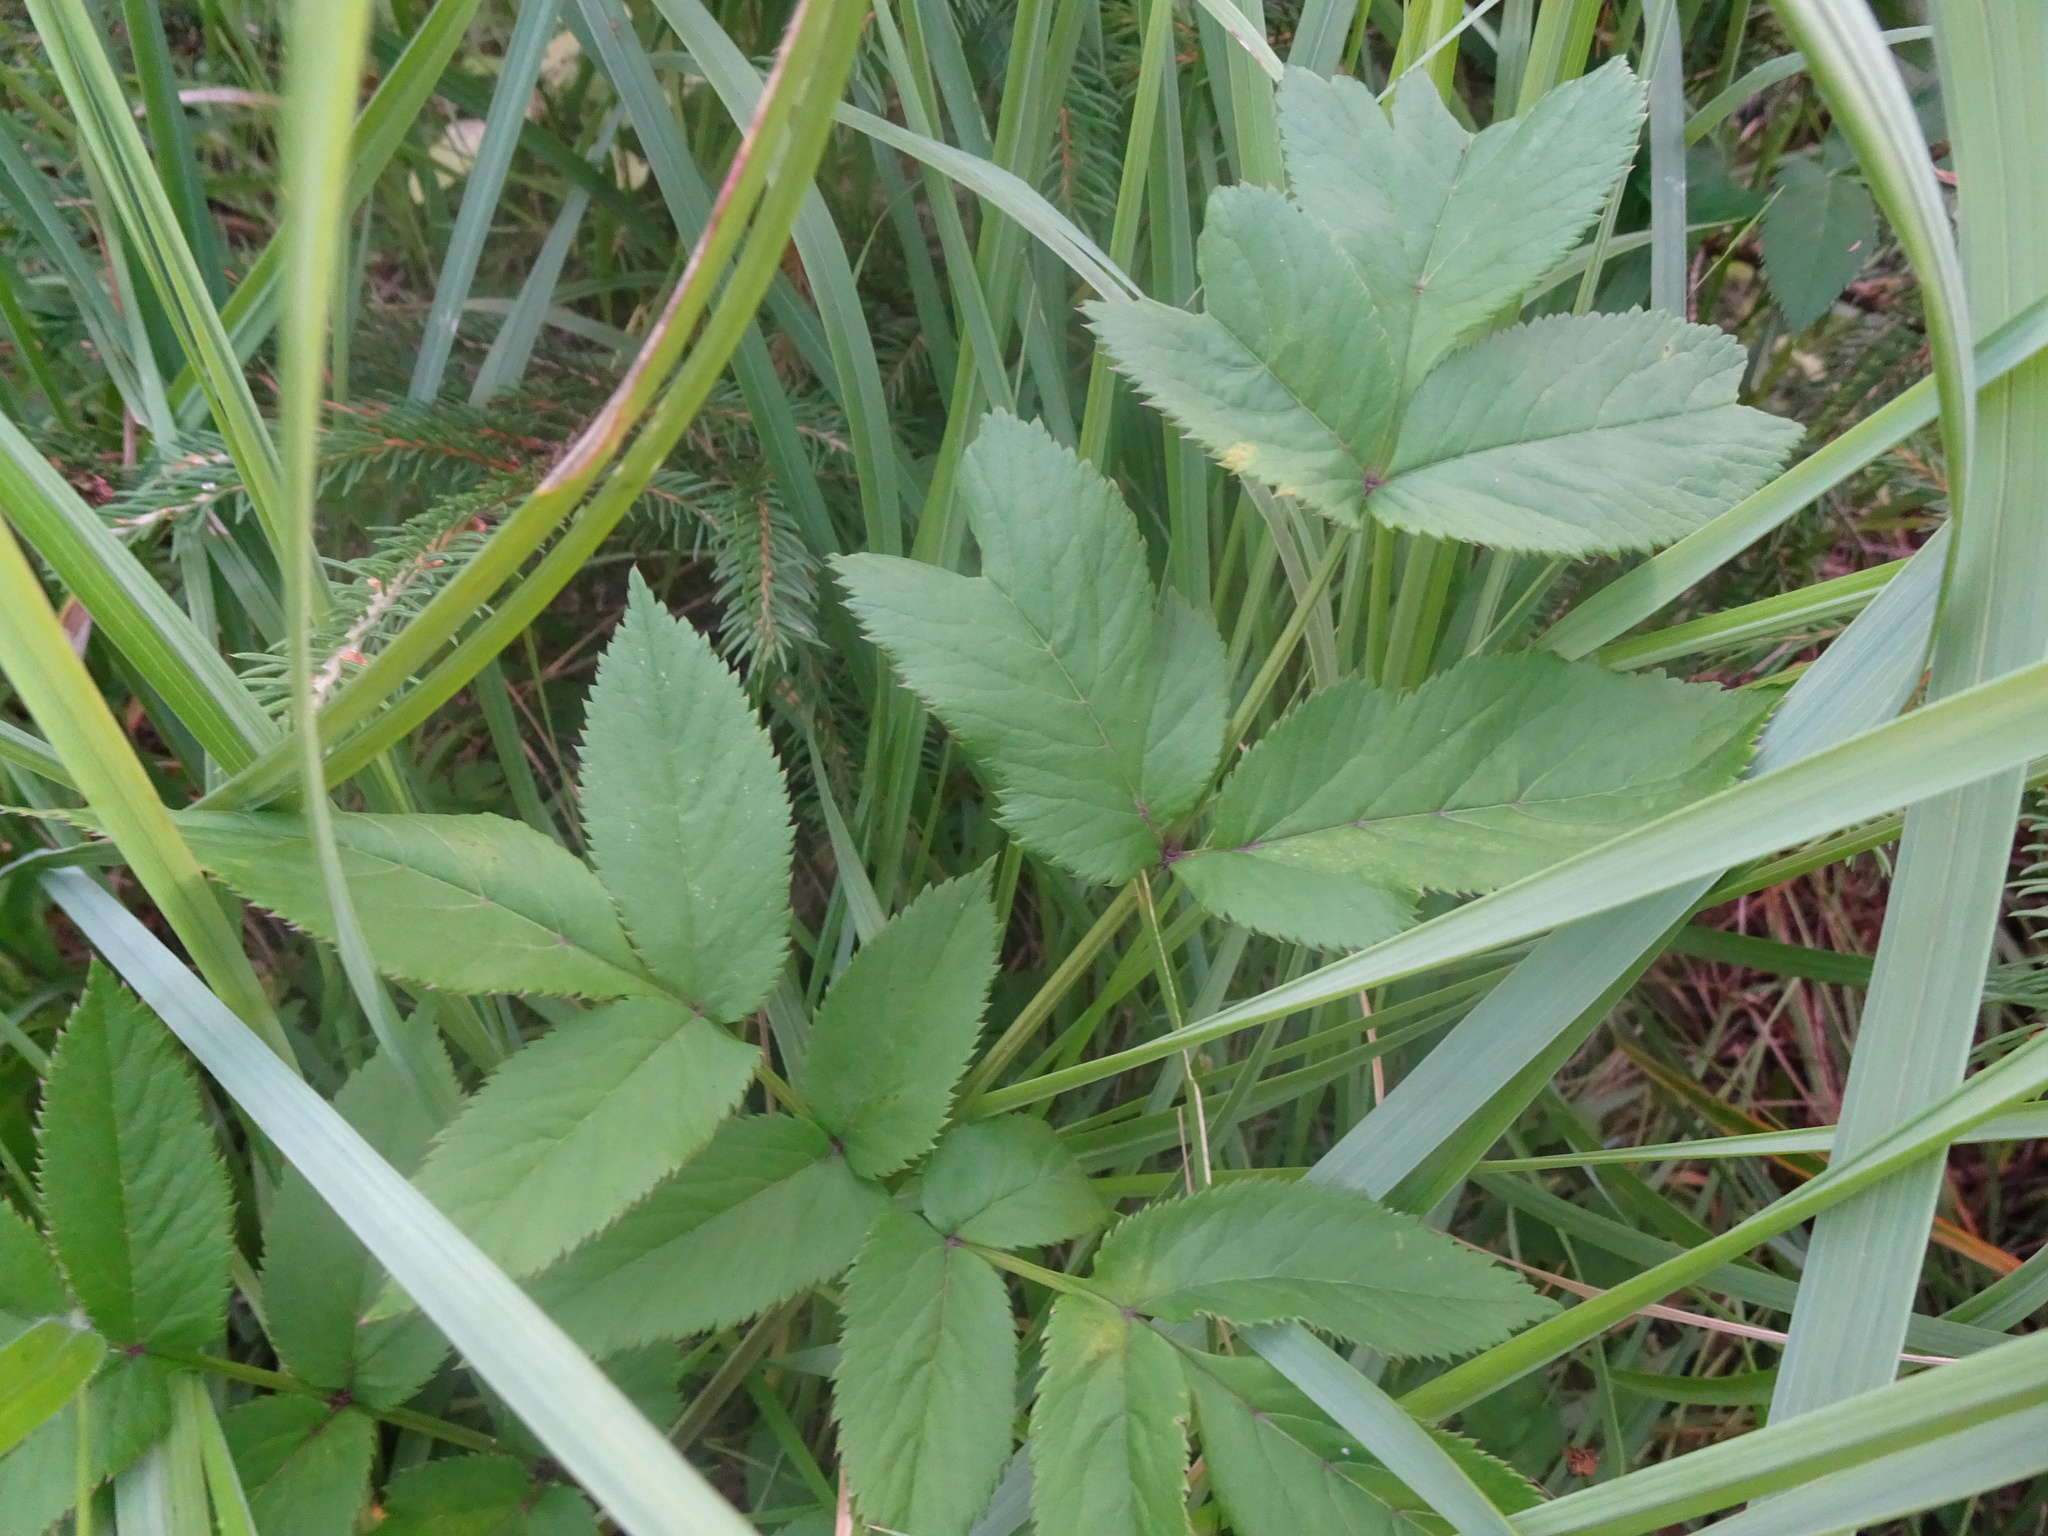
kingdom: Plantae
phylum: Tracheophyta
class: Magnoliopsida
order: Apiales
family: Apiaceae
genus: Angelica
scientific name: Angelica sylvestris
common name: Wild angelica
